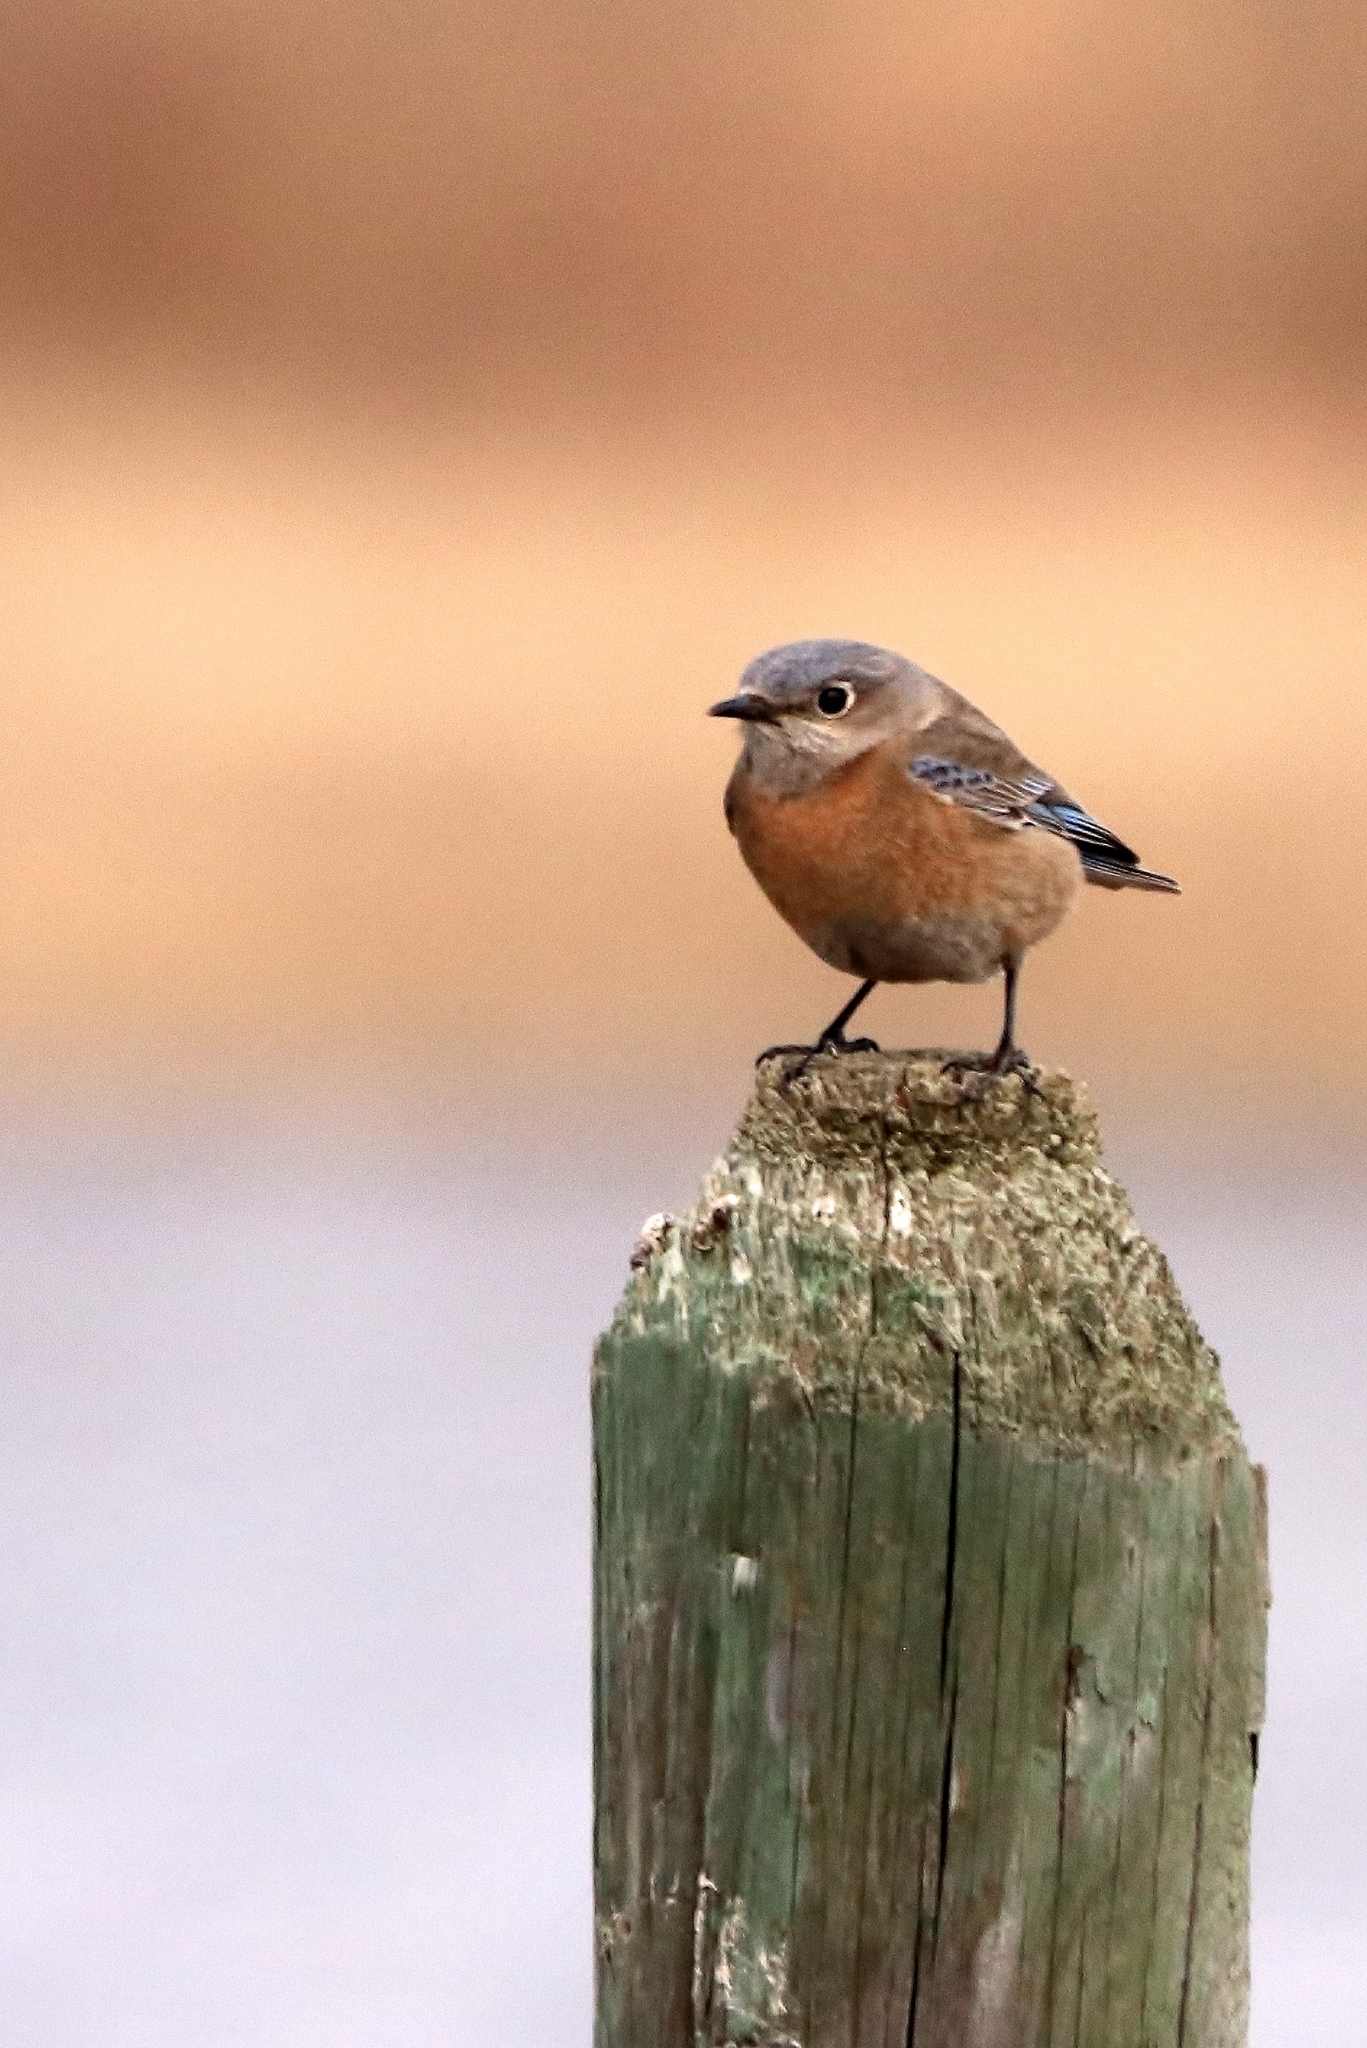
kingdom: Animalia
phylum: Chordata
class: Aves
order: Passeriformes
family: Turdidae
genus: Sialia
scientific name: Sialia mexicana
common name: Western bluebird
